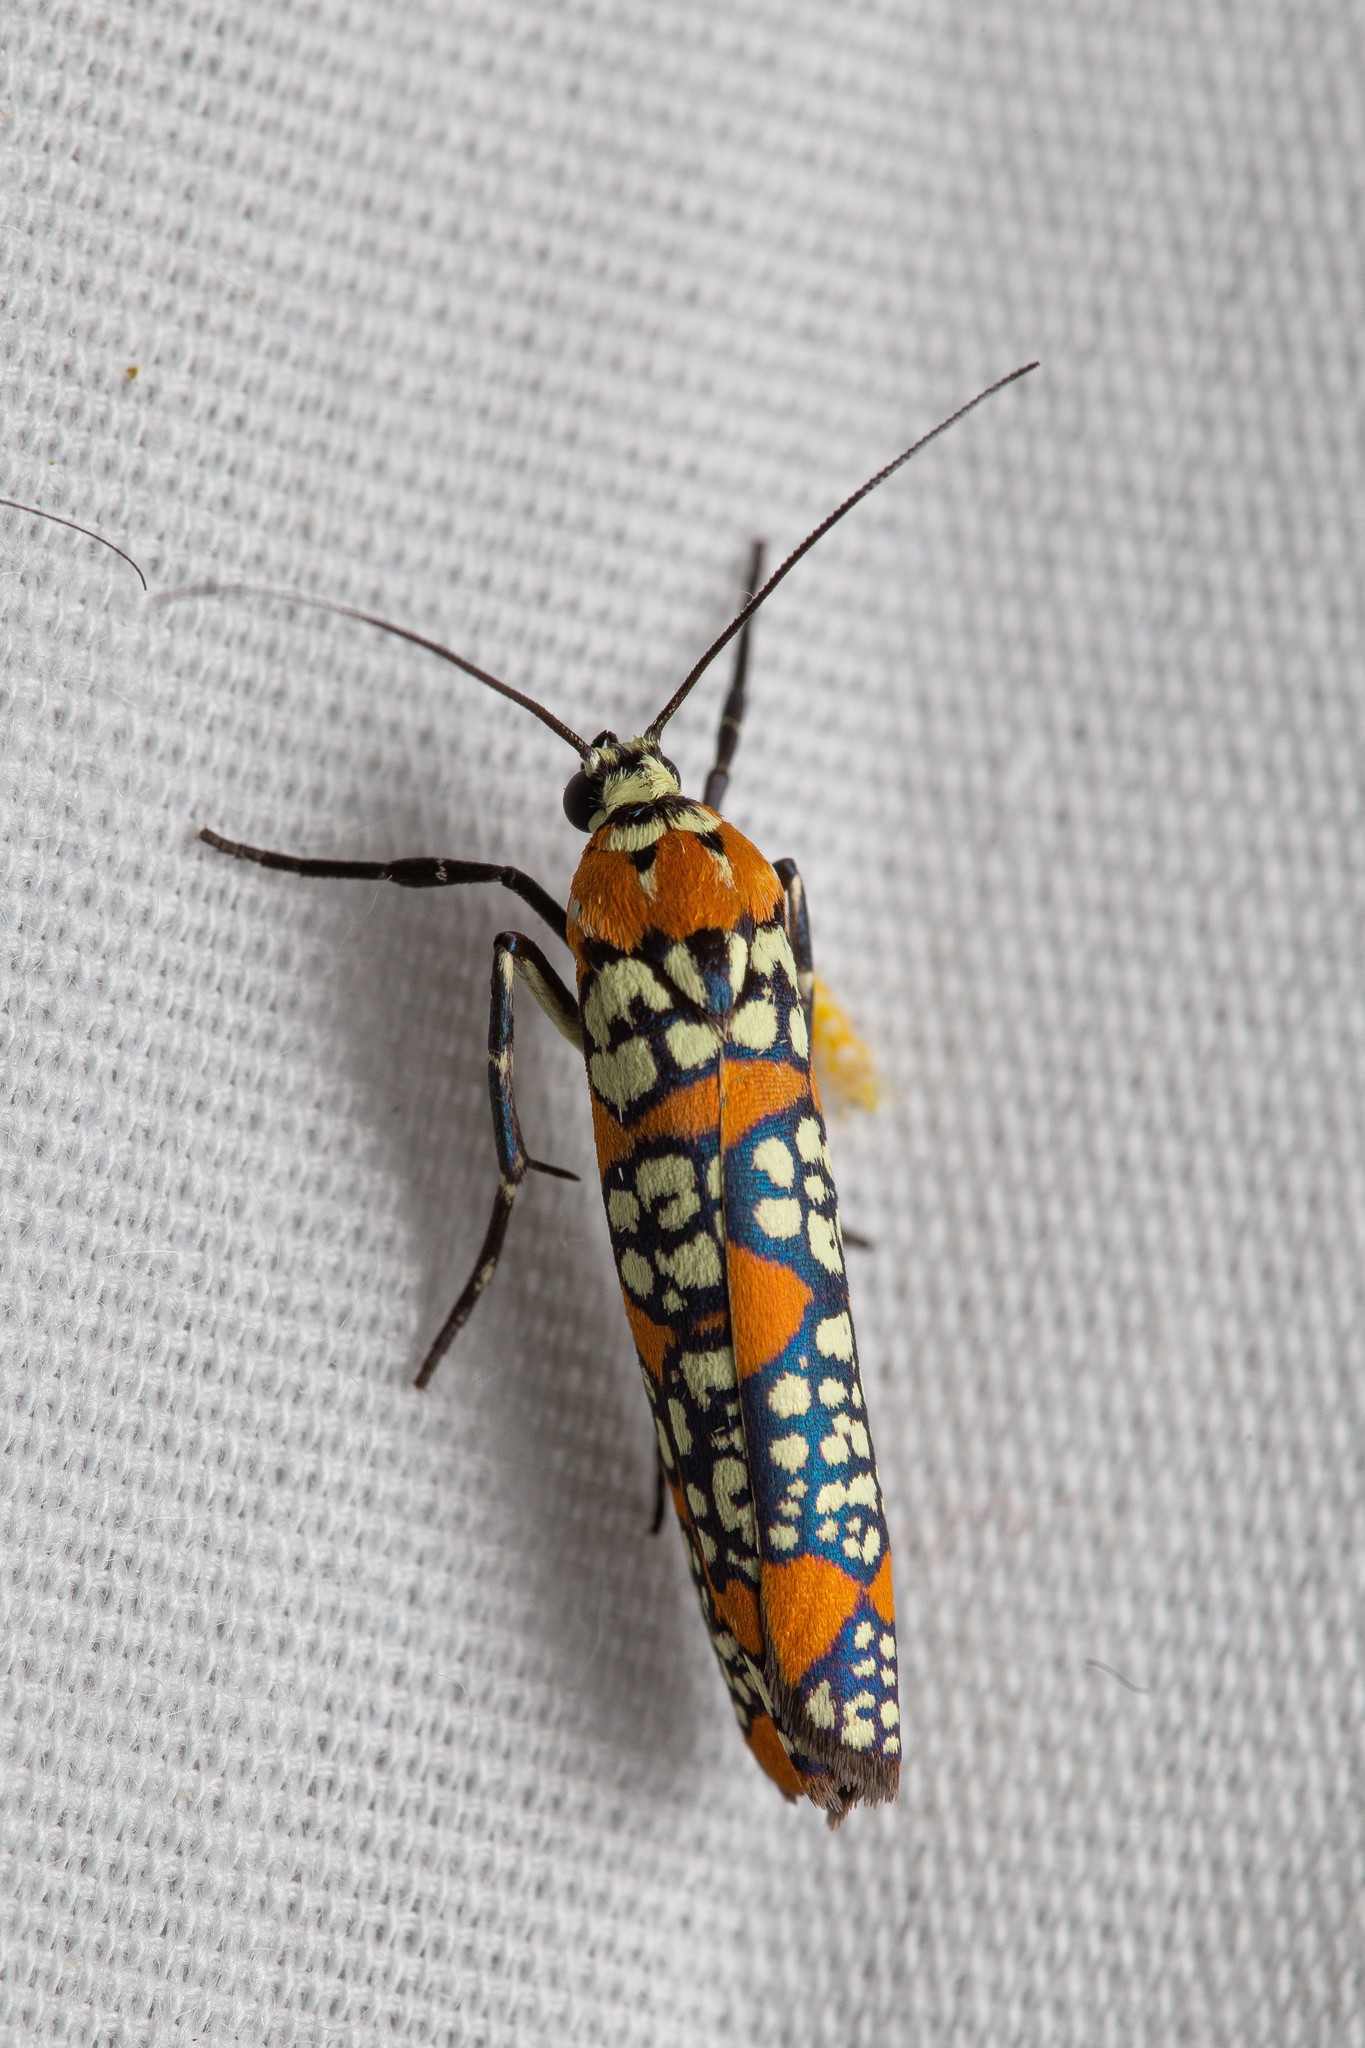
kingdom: Animalia
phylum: Arthropoda
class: Insecta
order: Lepidoptera
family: Attevidae
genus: Atteva
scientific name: Atteva punctella
